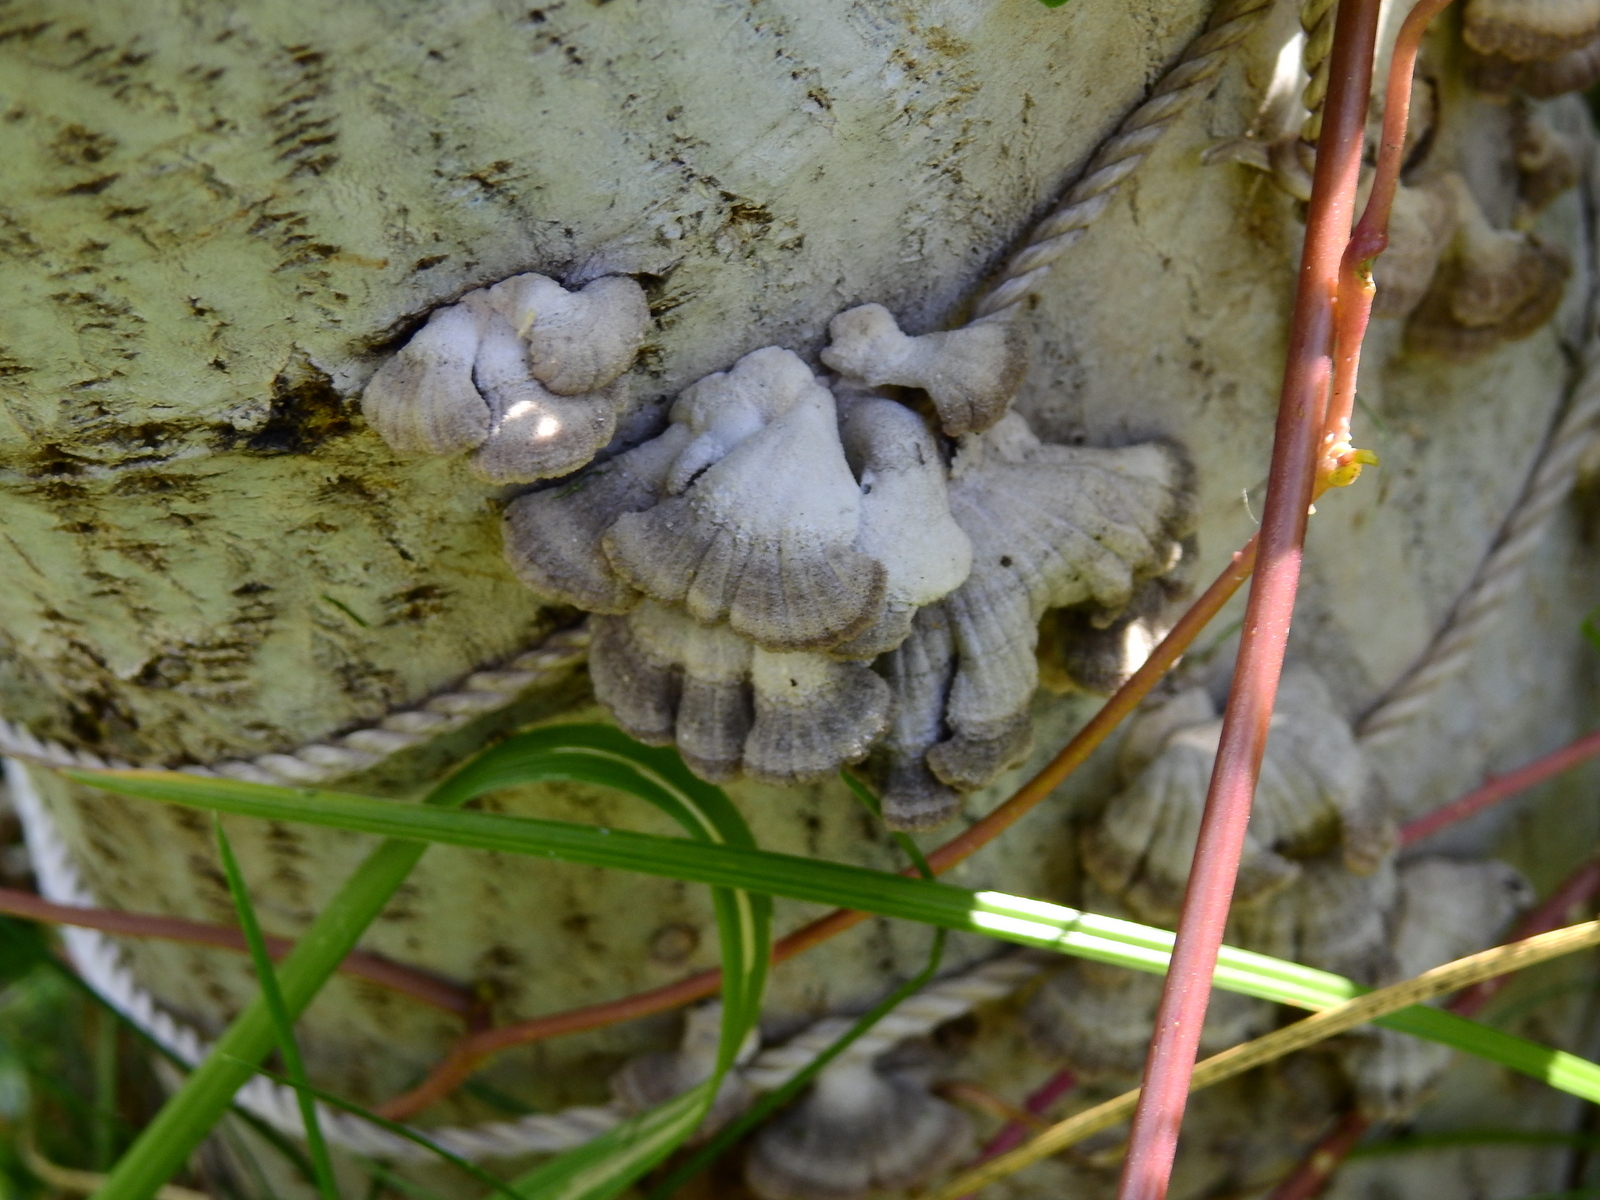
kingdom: Fungi
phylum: Basidiomycota
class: Agaricomycetes
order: Agaricales
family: Schizophyllaceae
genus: Schizophyllum
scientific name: Schizophyllum commune
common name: Common porecrust
